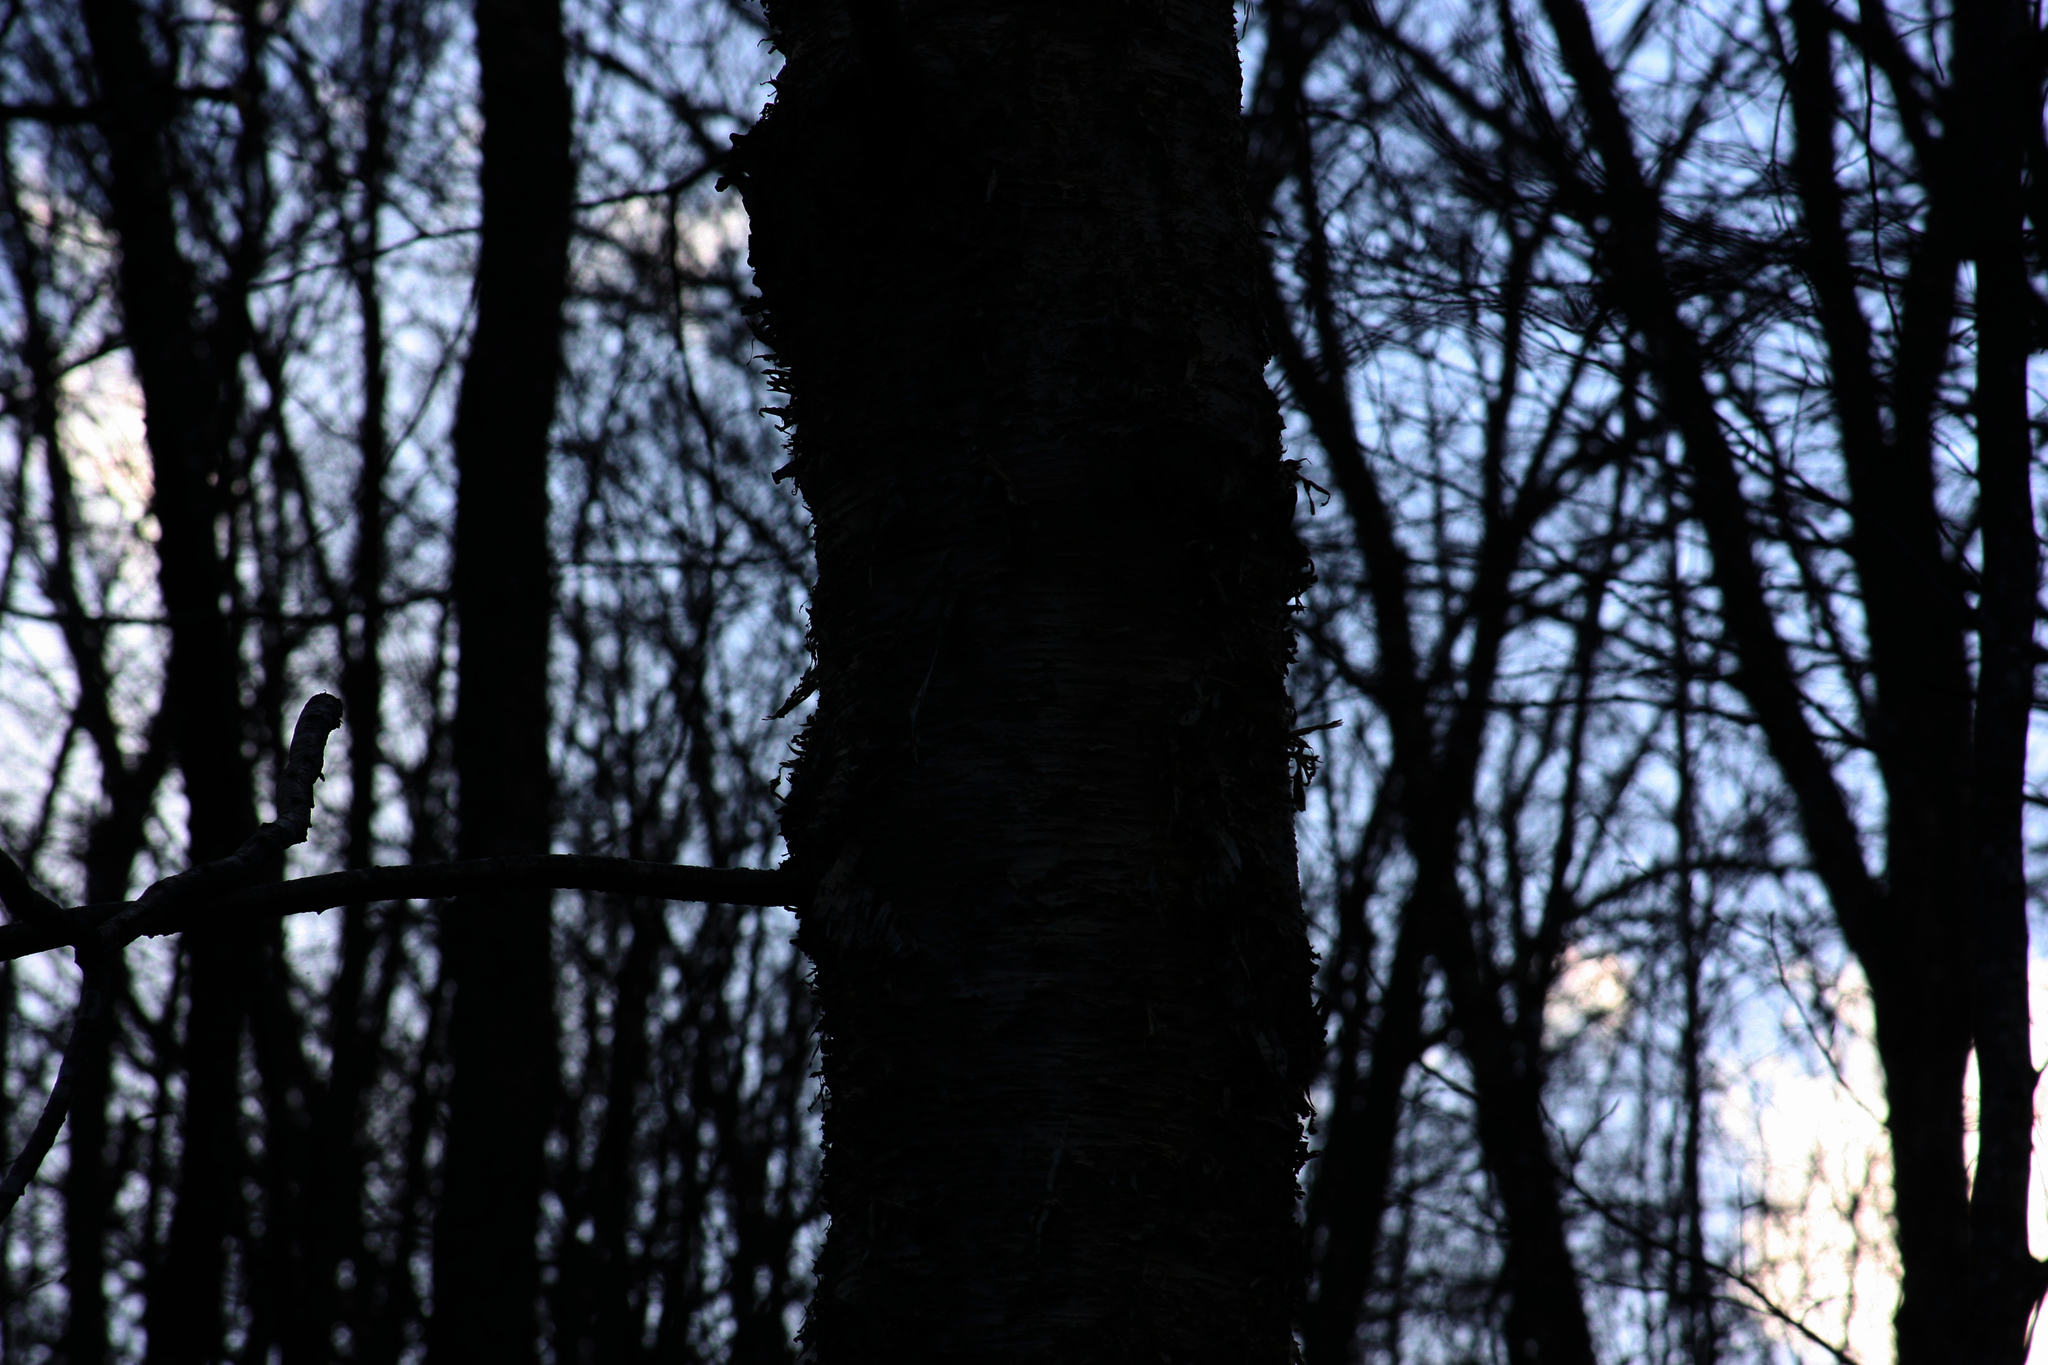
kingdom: Plantae
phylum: Tracheophyta
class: Magnoliopsida
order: Fagales
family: Betulaceae
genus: Betula
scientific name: Betula alleghaniensis
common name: Yellow birch
